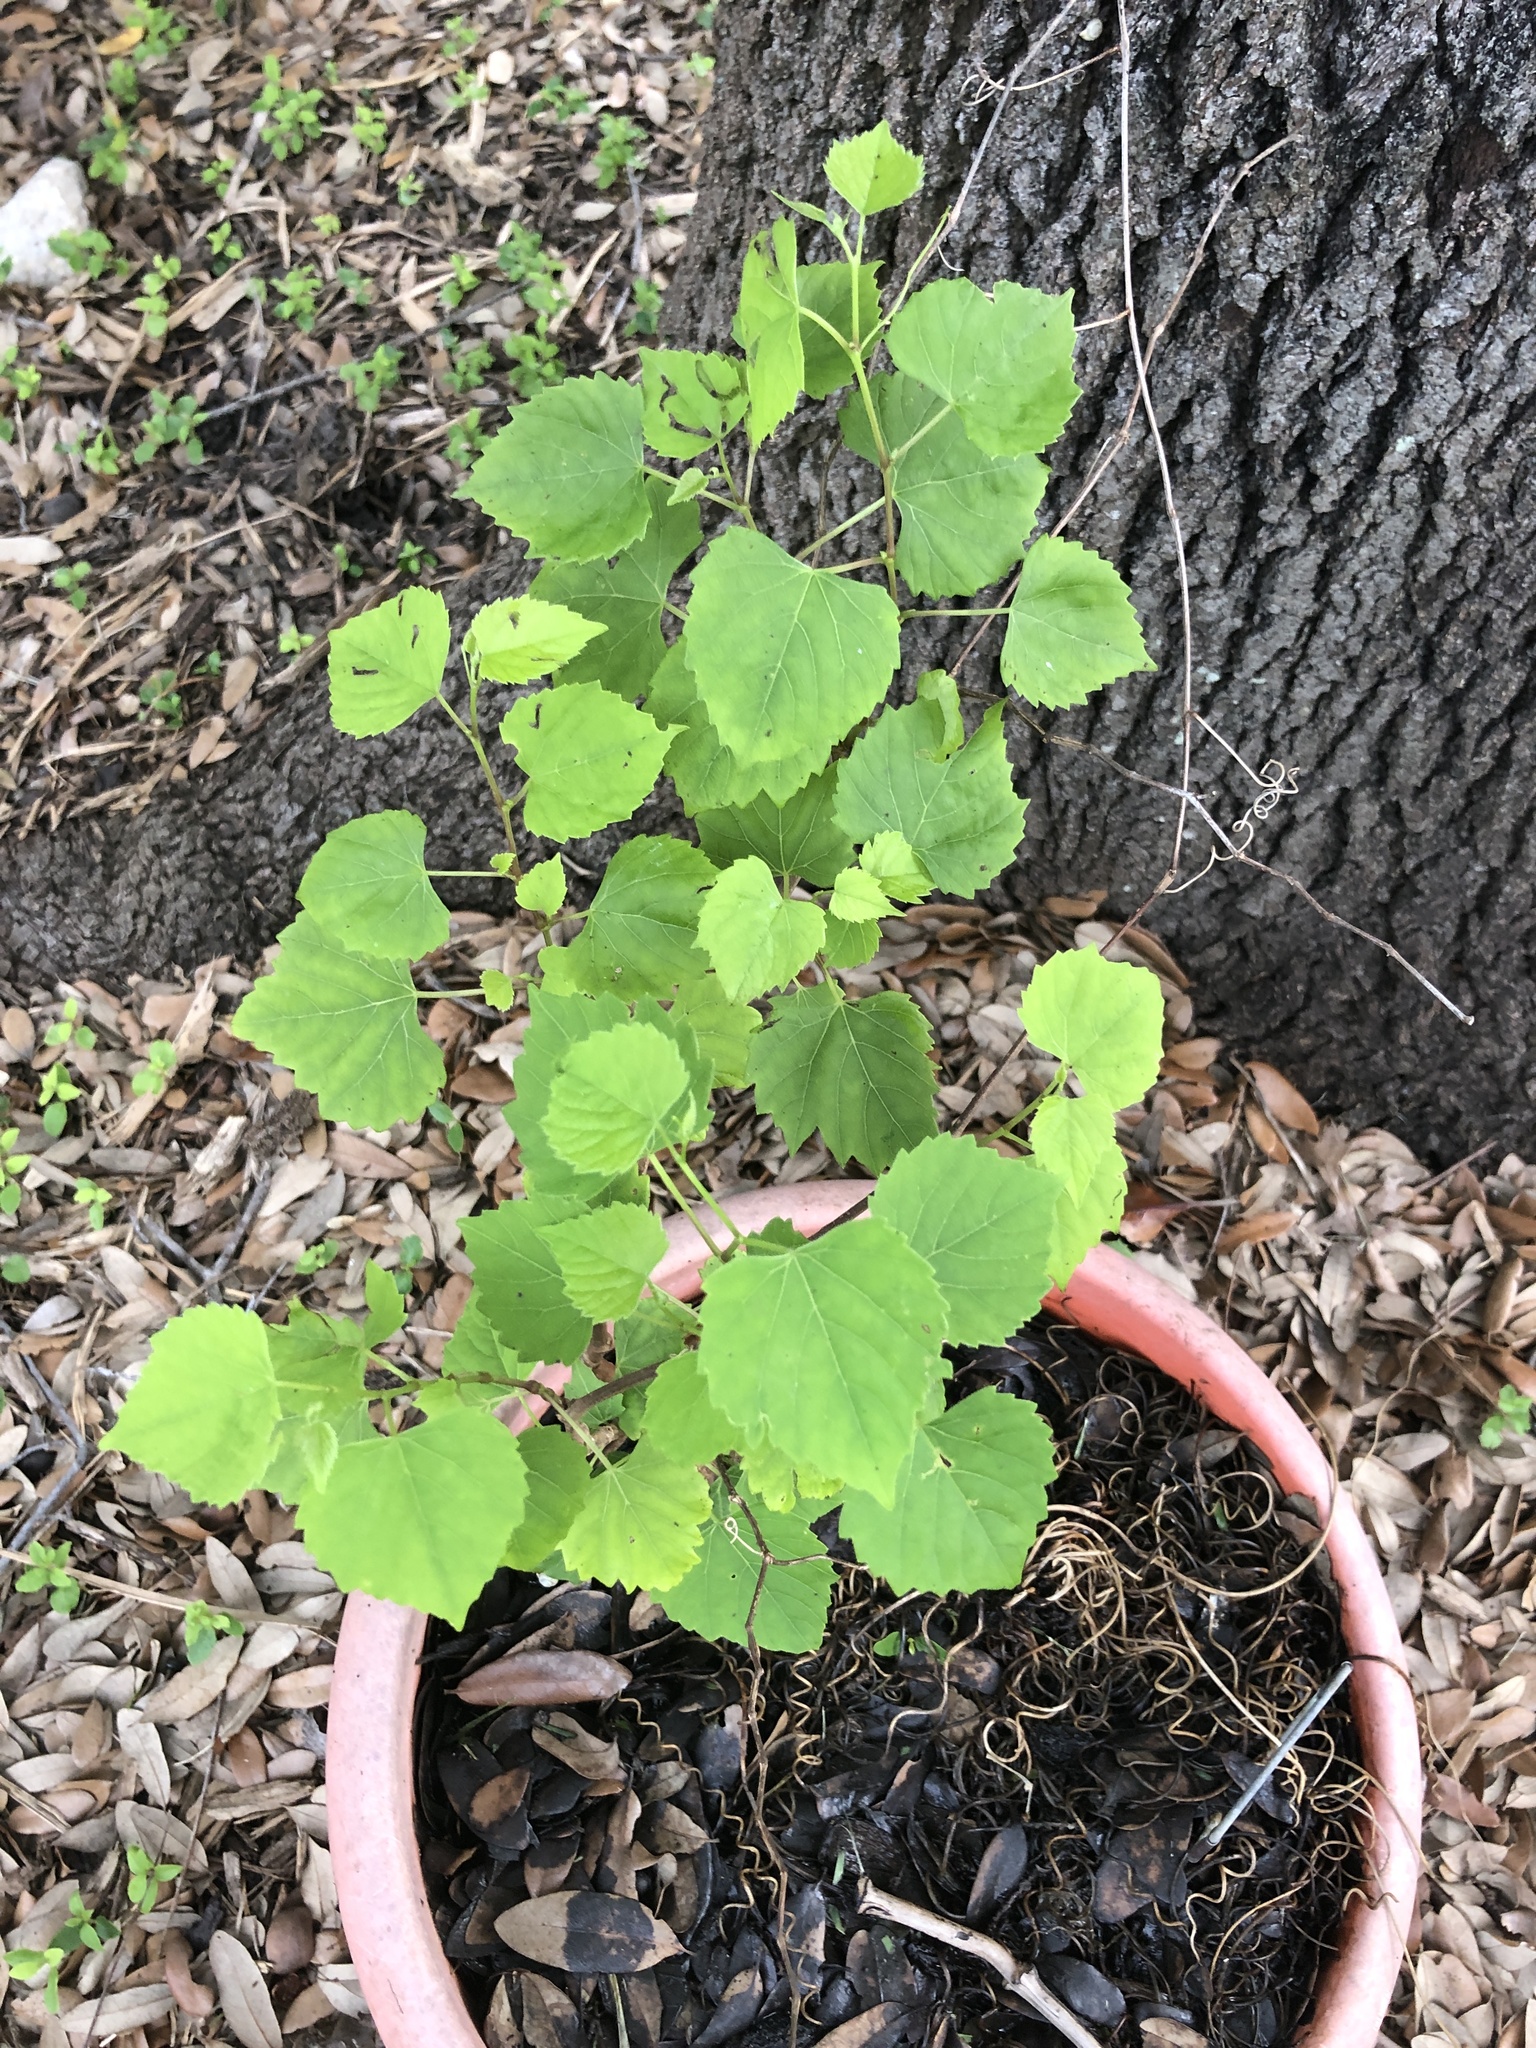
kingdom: Plantae
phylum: Tracheophyta
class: Magnoliopsida
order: Vitales
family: Vitaceae
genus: Ampelopsis
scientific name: Ampelopsis cordata
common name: Heart-leaf ampelopsis
